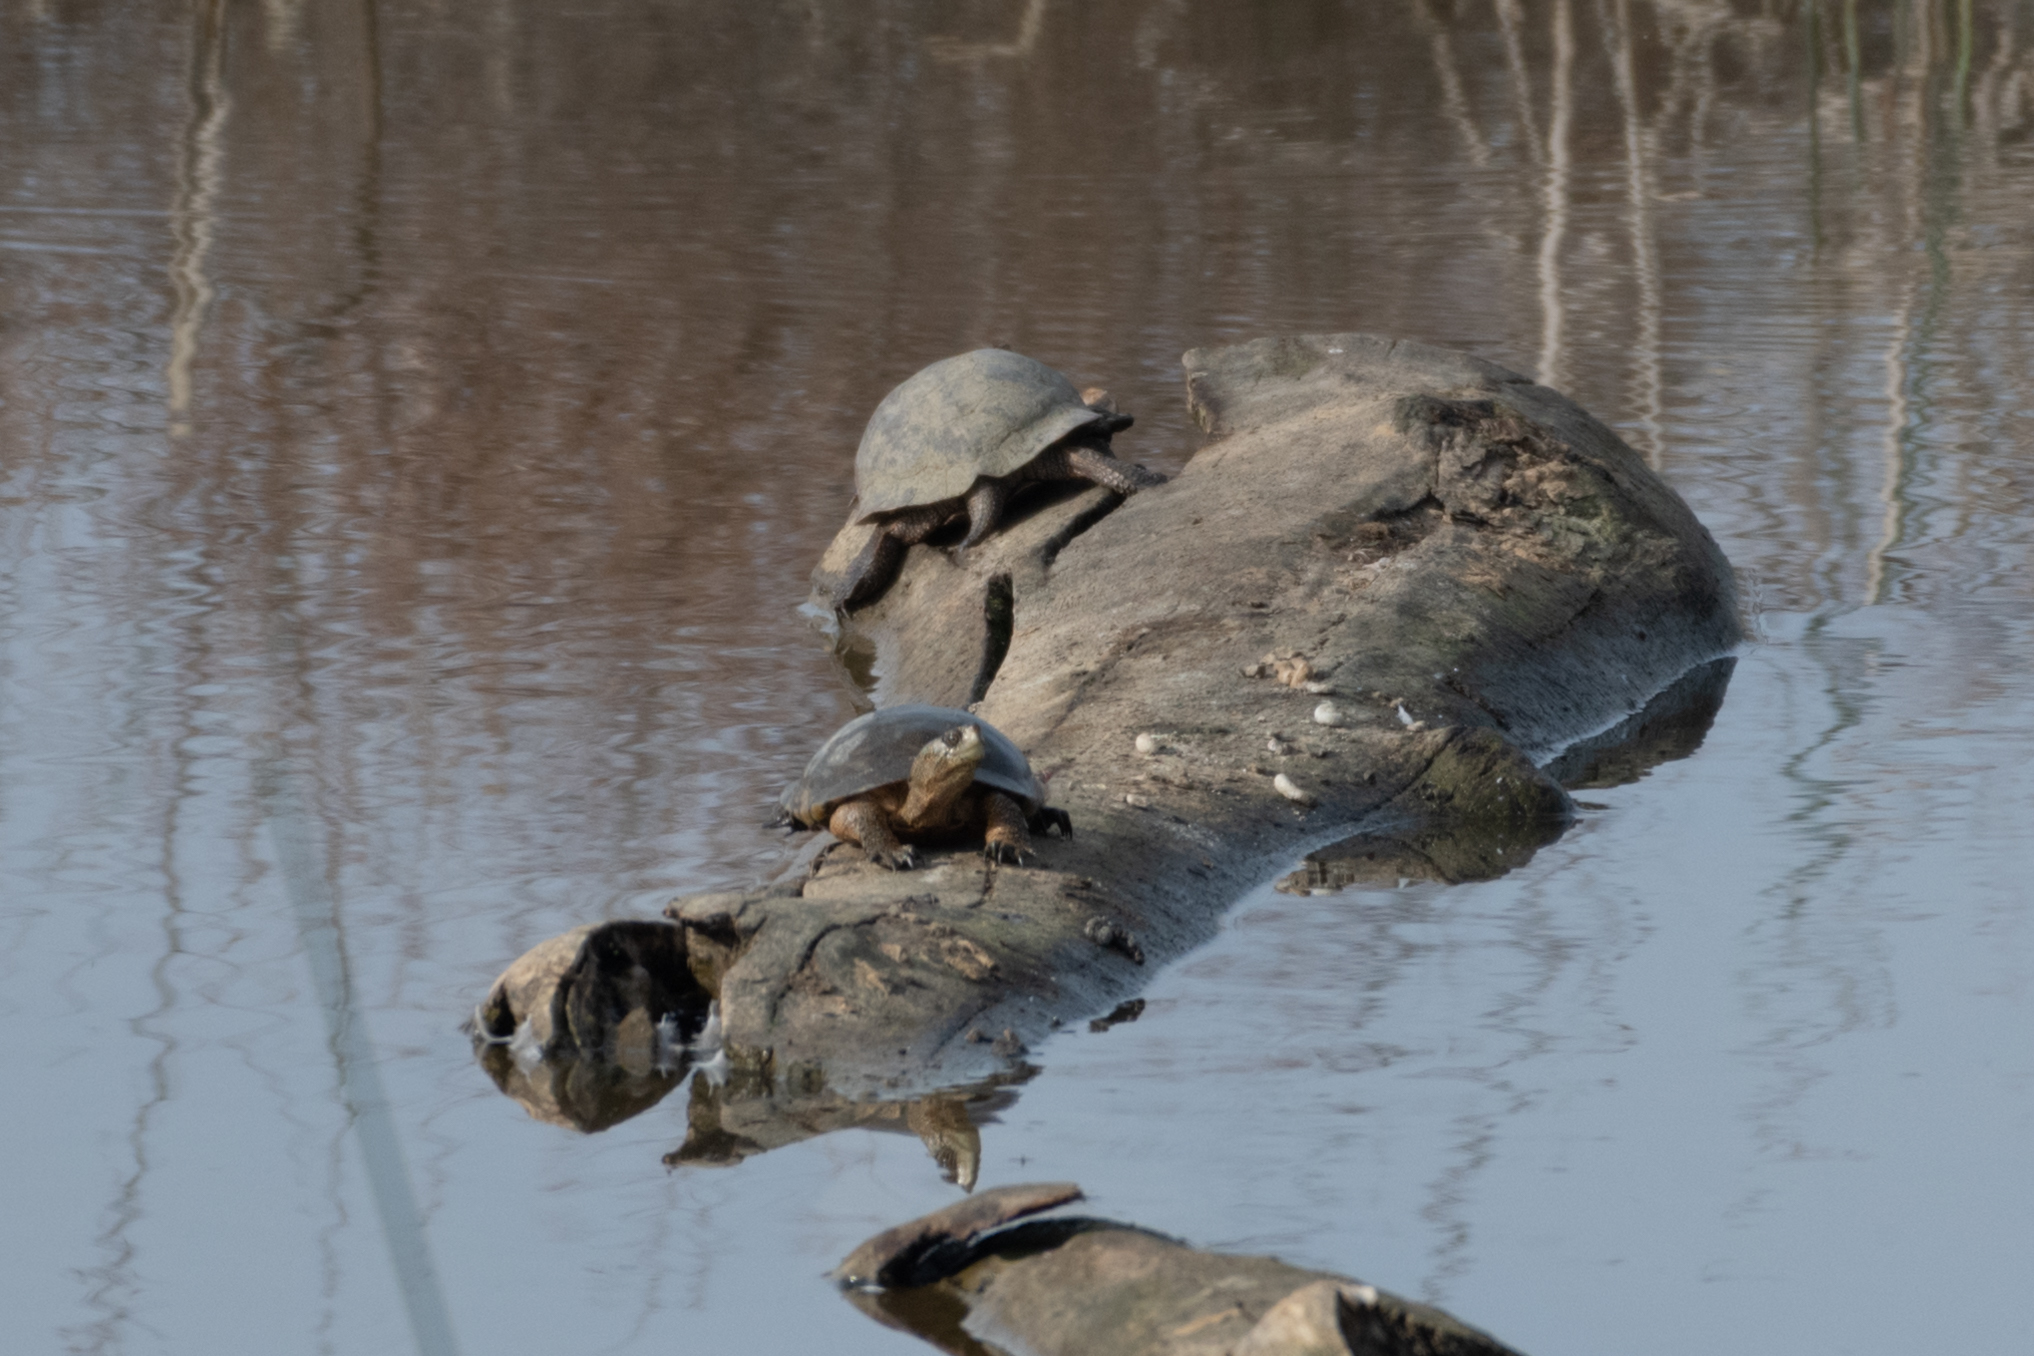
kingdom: Animalia
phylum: Chordata
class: Testudines
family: Emydidae
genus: Actinemys
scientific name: Actinemys marmorata
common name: Western pond turtle
